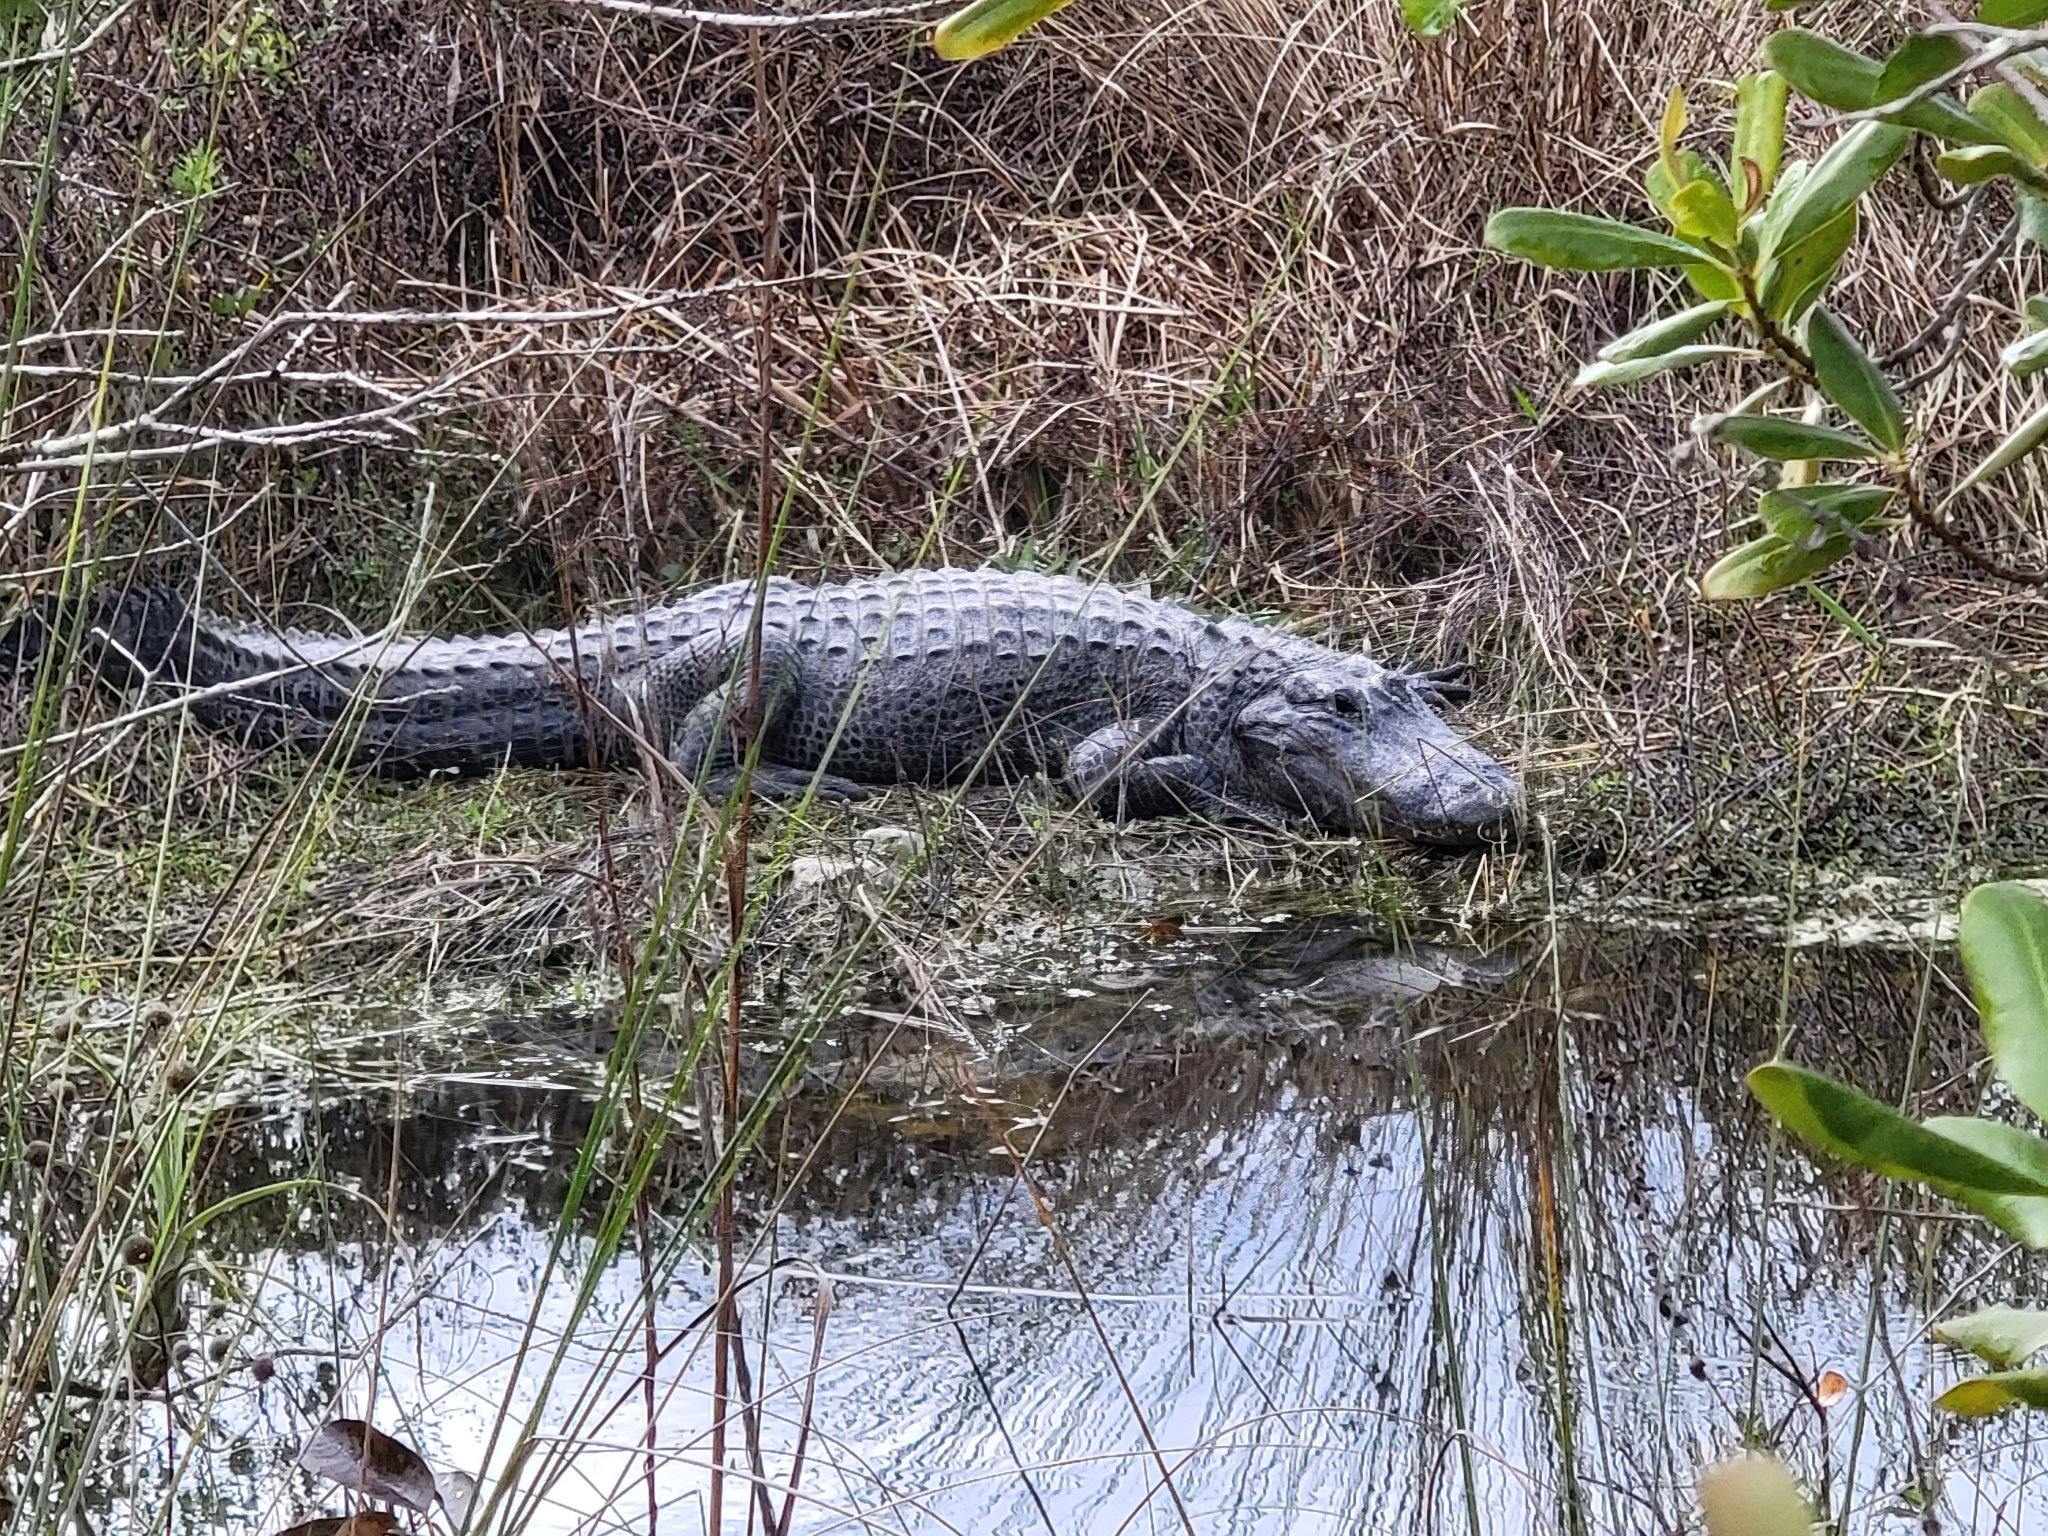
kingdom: Animalia
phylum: Chordata
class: Crocodylia
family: Alligatoridae
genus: Alligator
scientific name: Alligator mississippiensis
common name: American alligator
